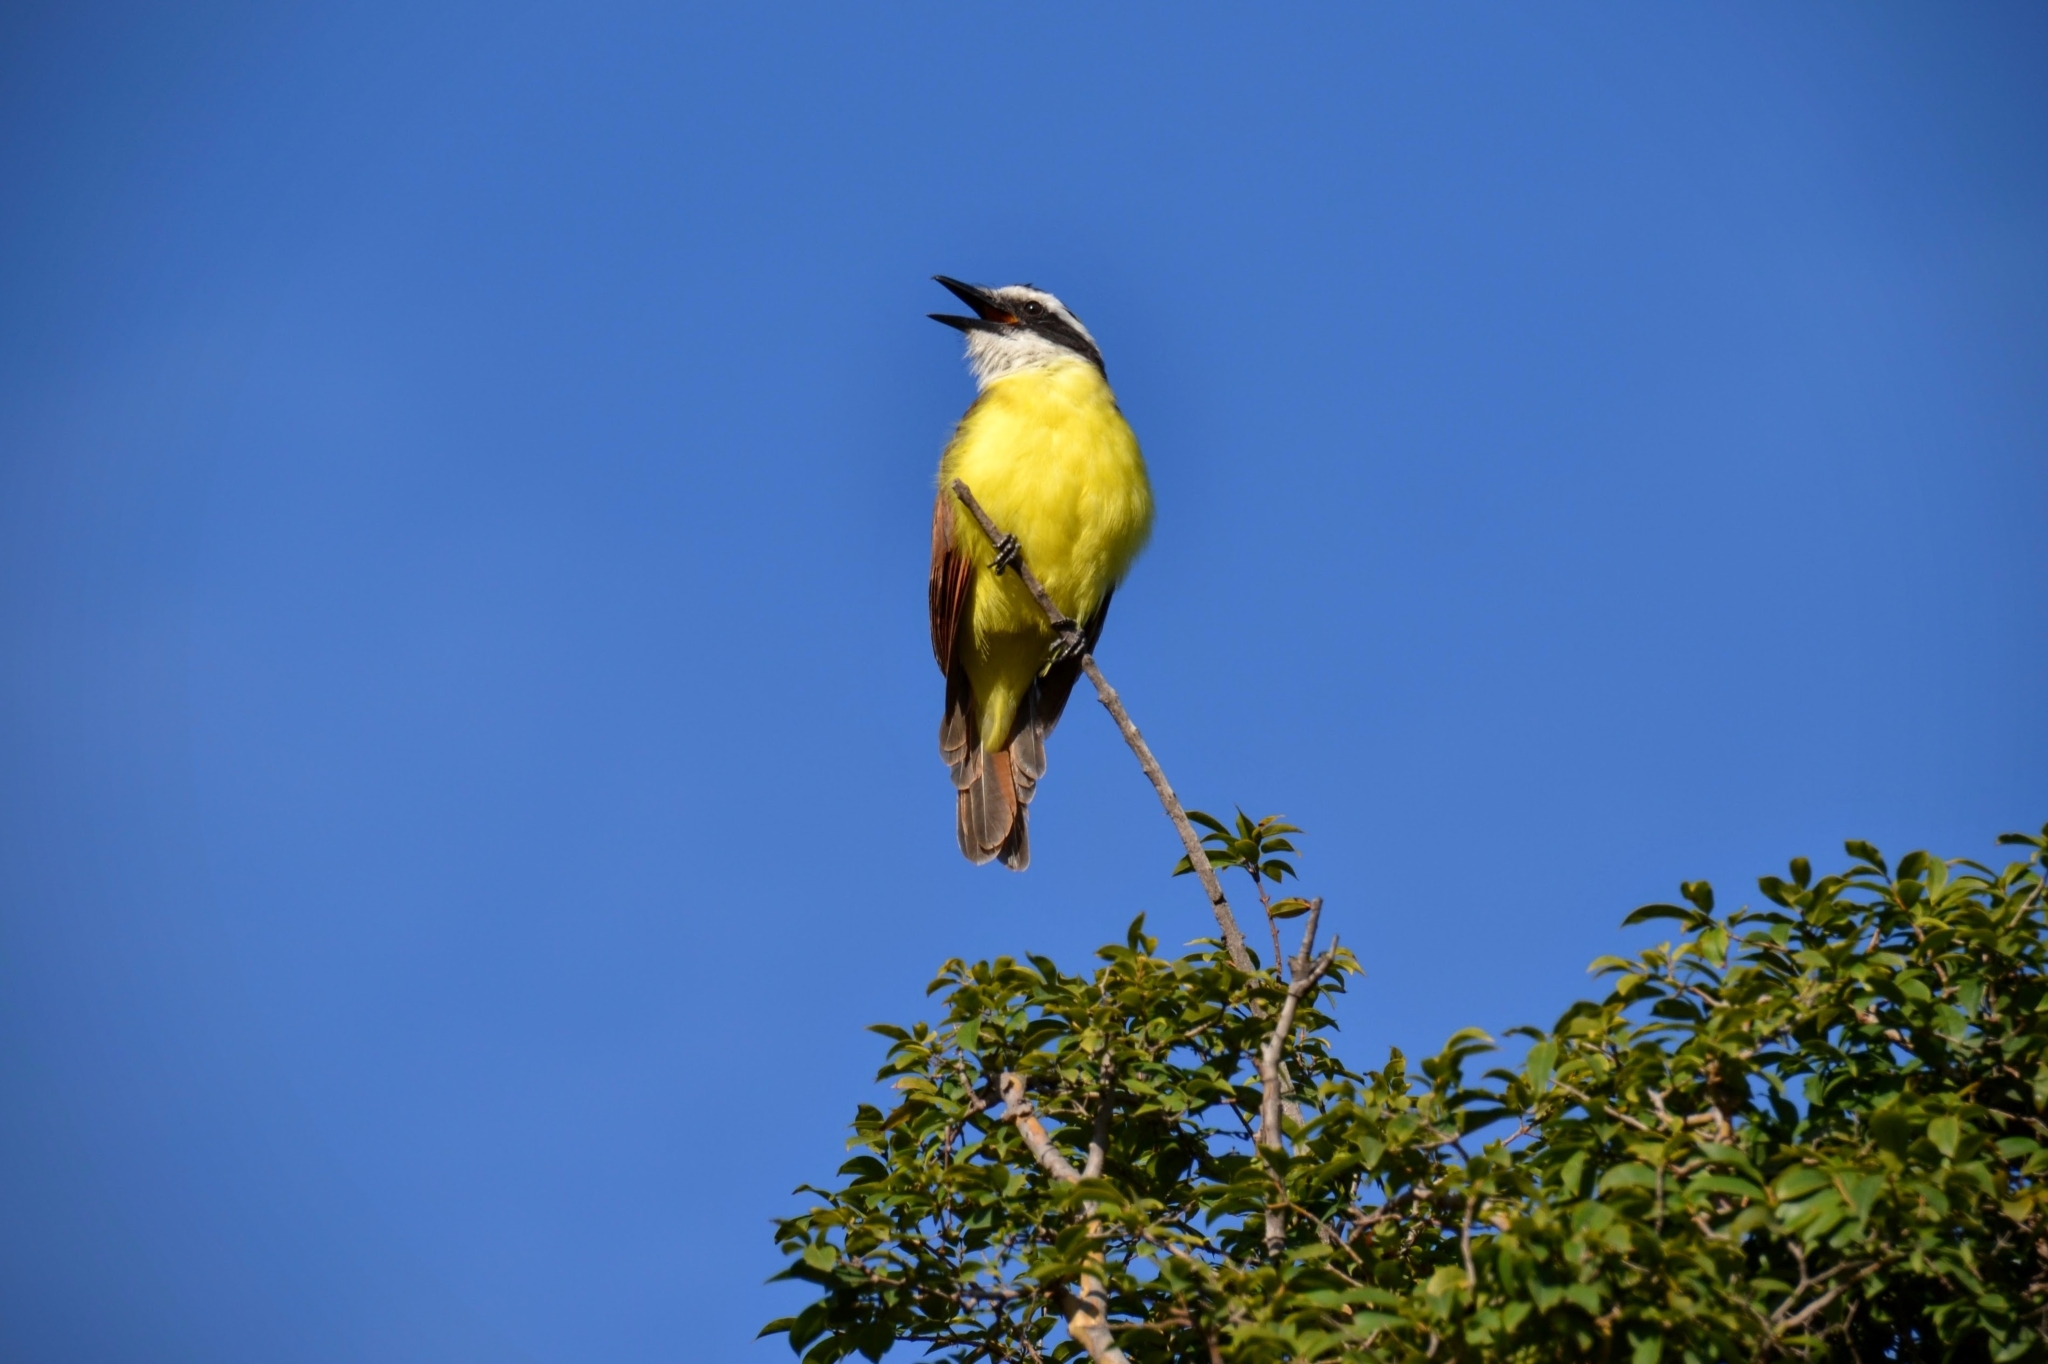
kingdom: Animalia
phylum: Chordata
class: Aves
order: Passeriformes
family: Tyrannidae
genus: Pitangus
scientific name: Pitangus sulphuratus
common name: Great kiskadee
